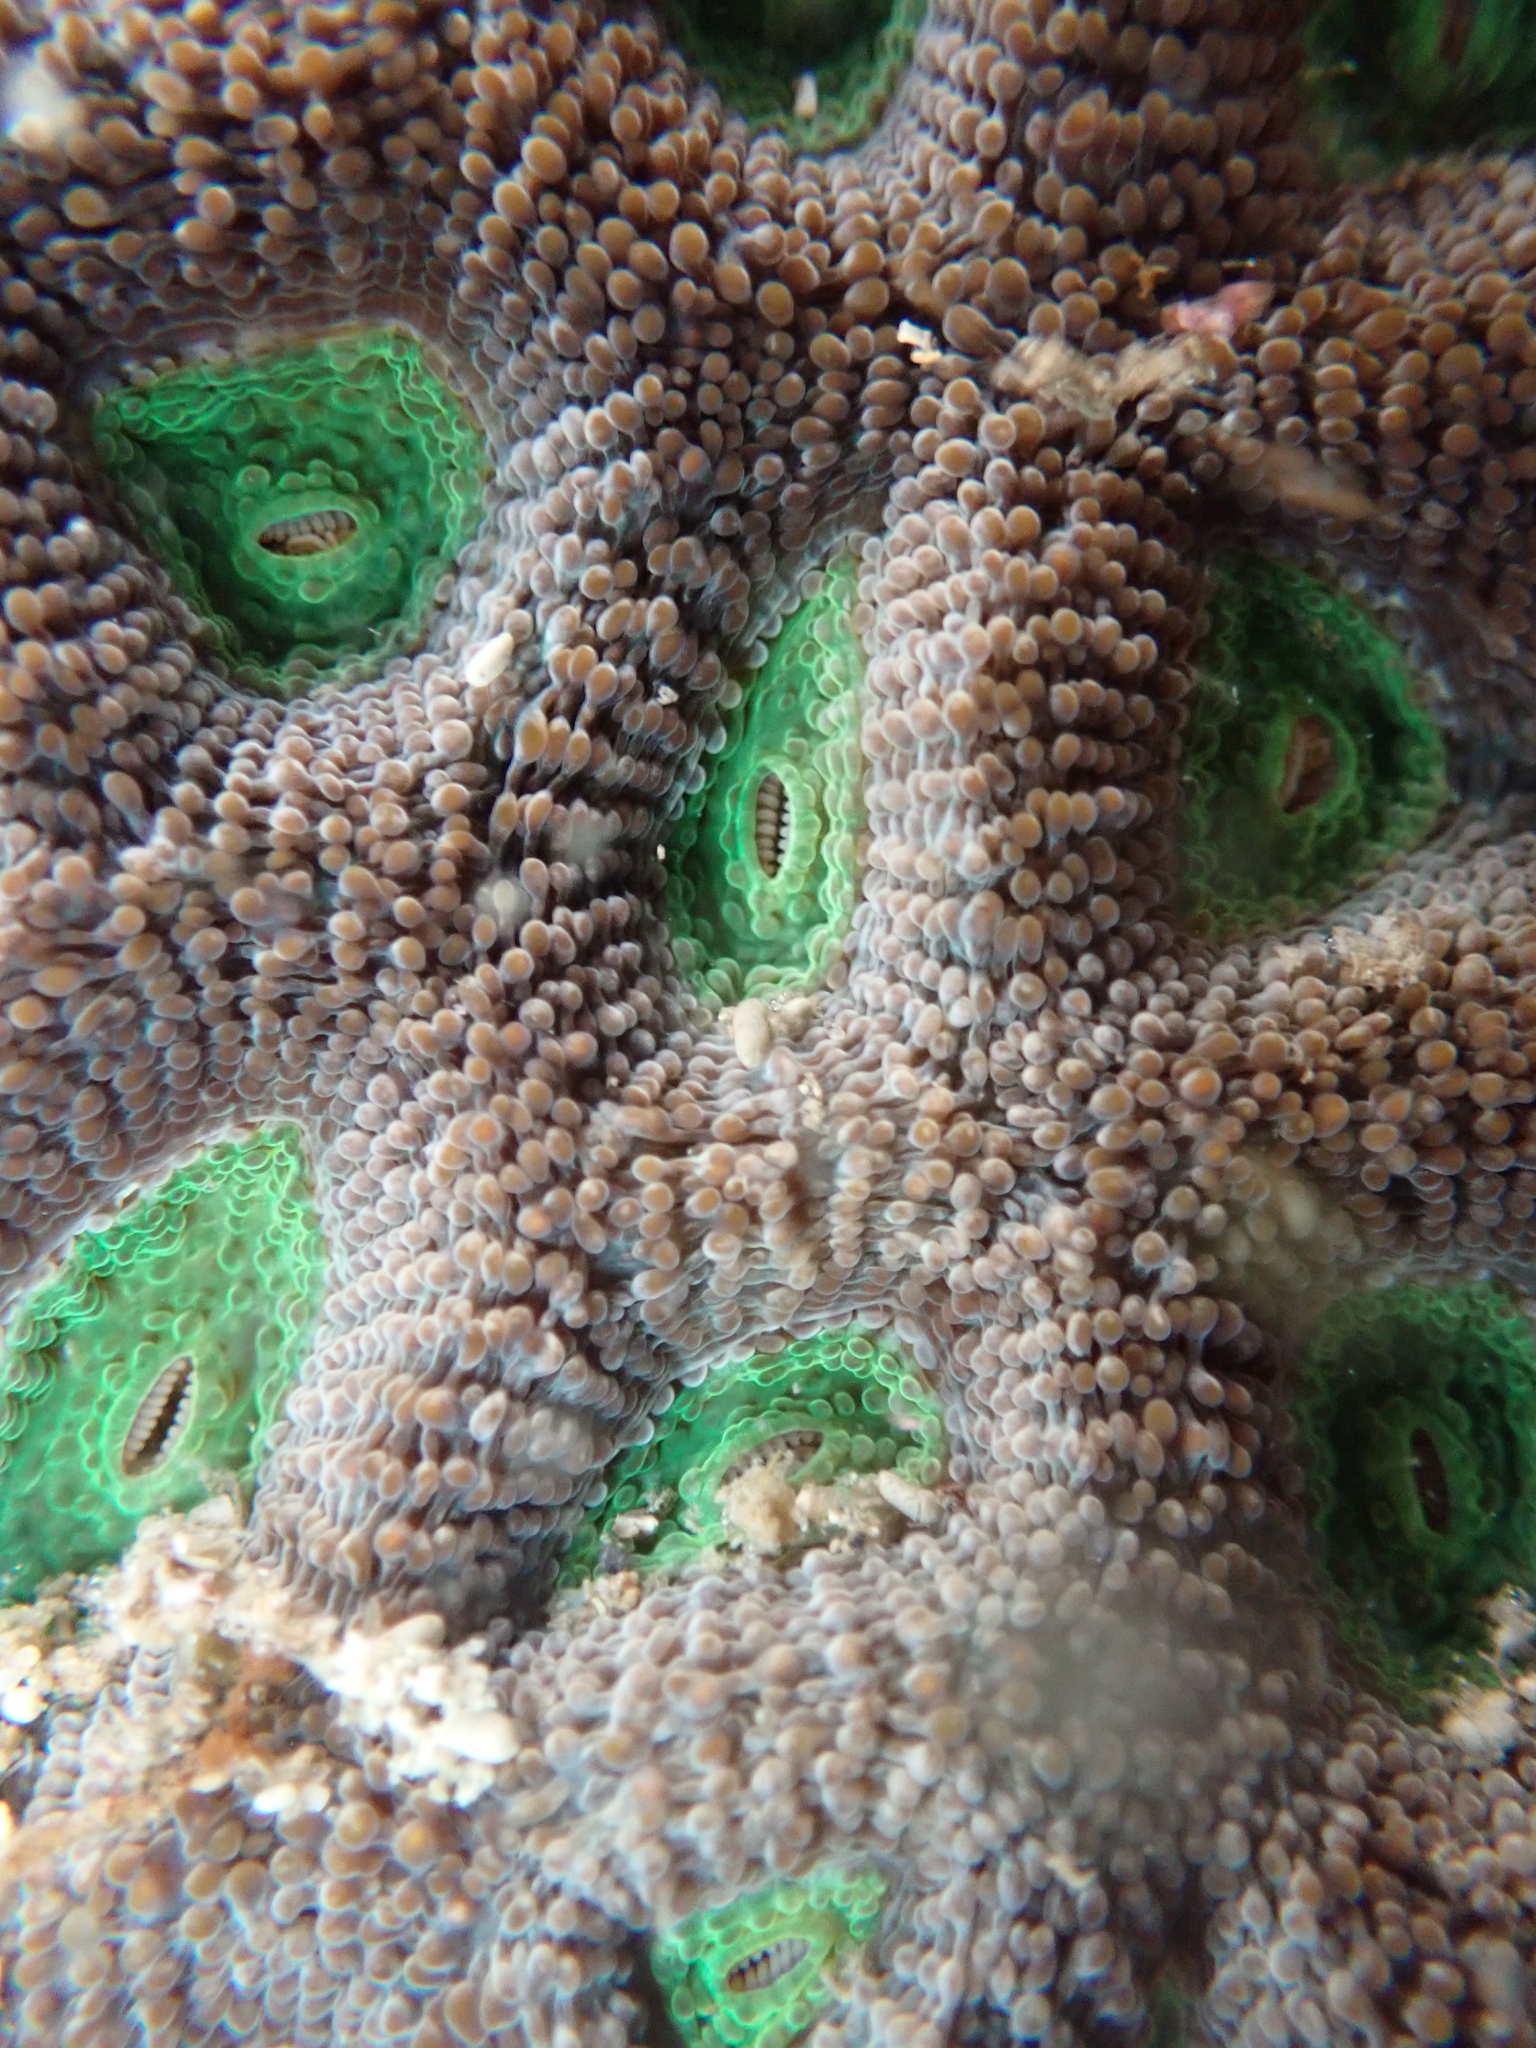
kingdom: Animalia
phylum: Cnidaria
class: Anthozoa
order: Scleractinia
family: Lobophylliidae
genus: Homophyllia
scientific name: Homophyllia bowerbanki
